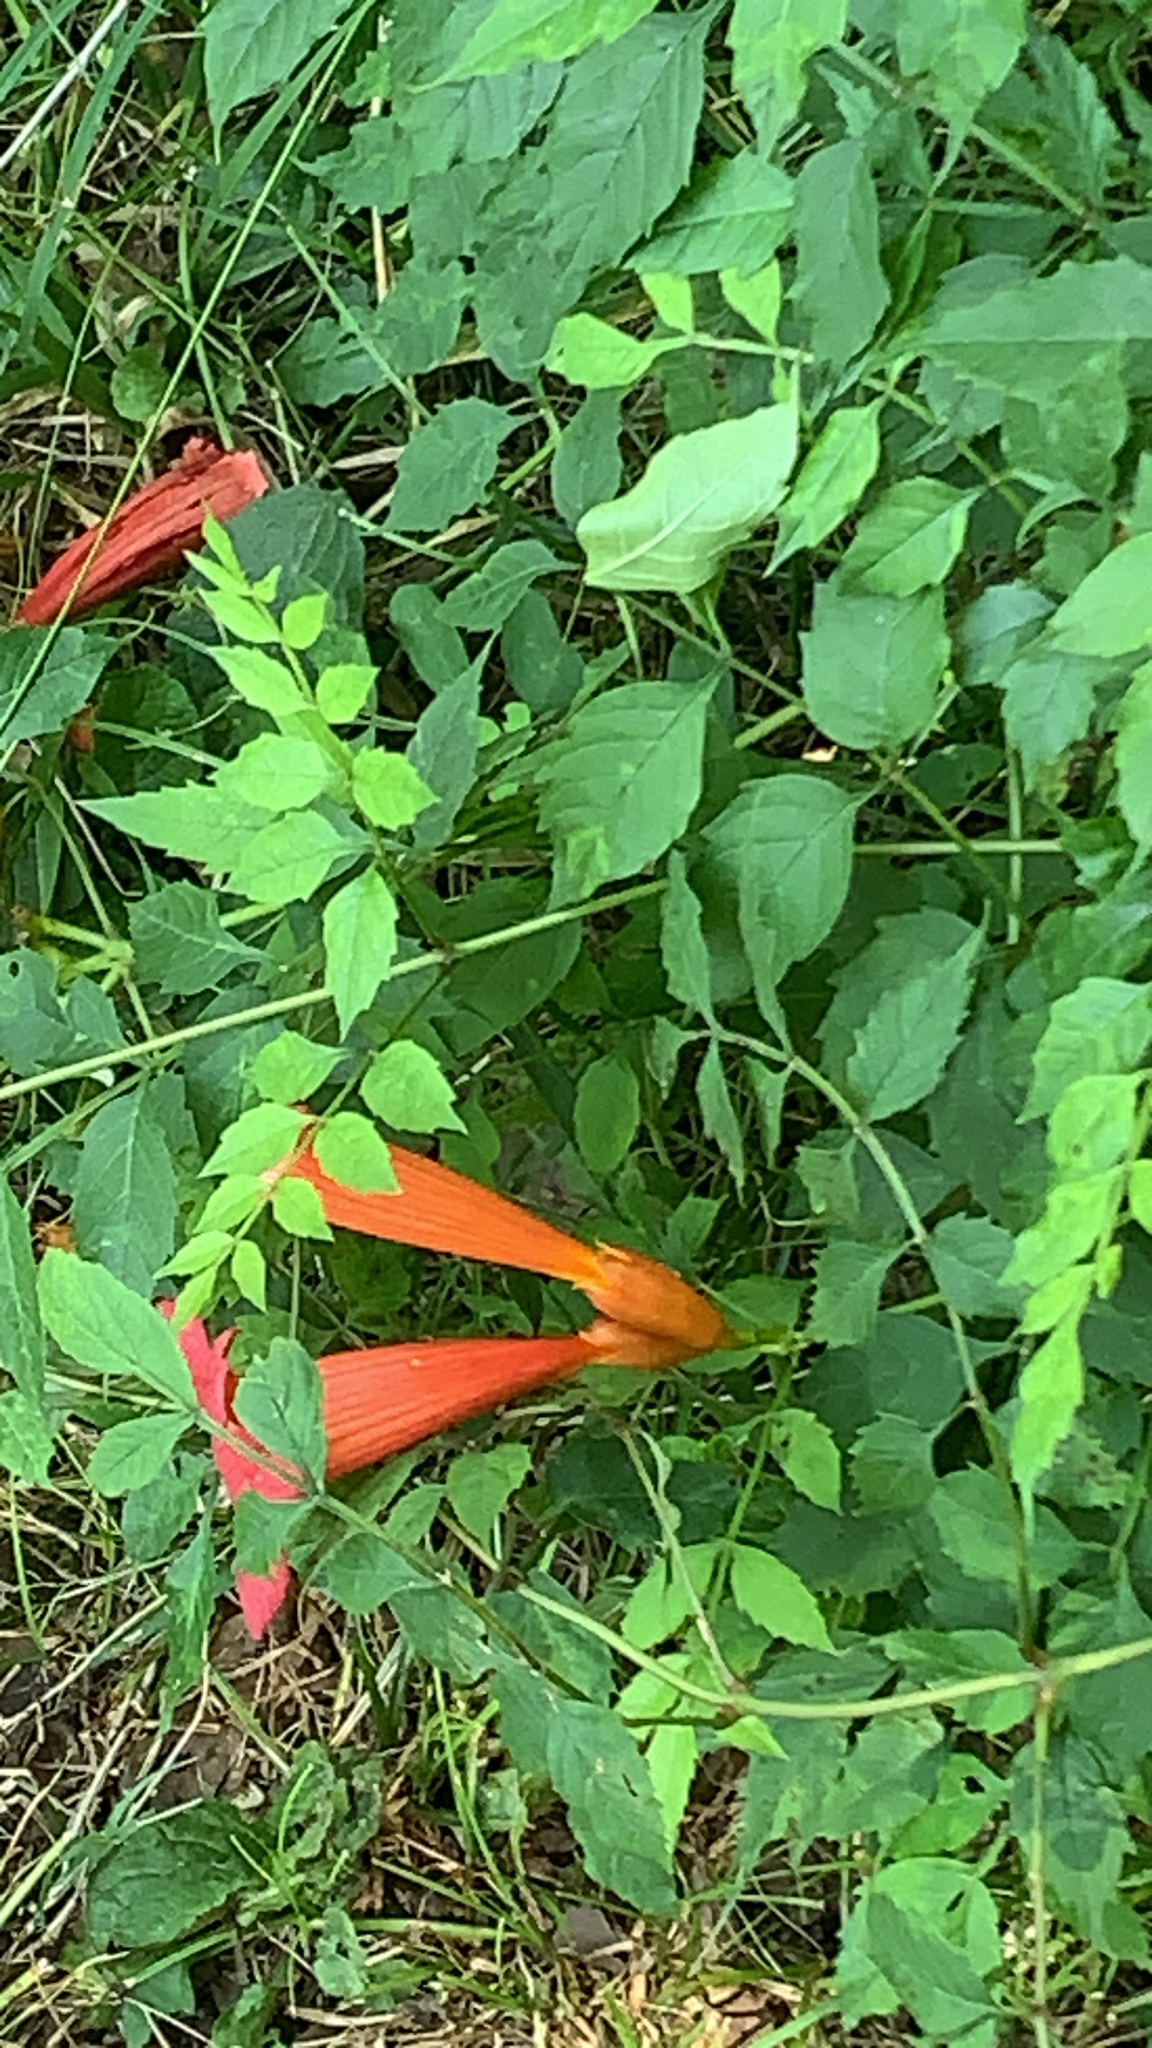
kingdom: Plantae
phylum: Tracheophyta
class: Magnoliopsida
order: Lamiales
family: Bignoniaceae
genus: Campsis
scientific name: Campsis radicans
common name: Trumpet-creeper
